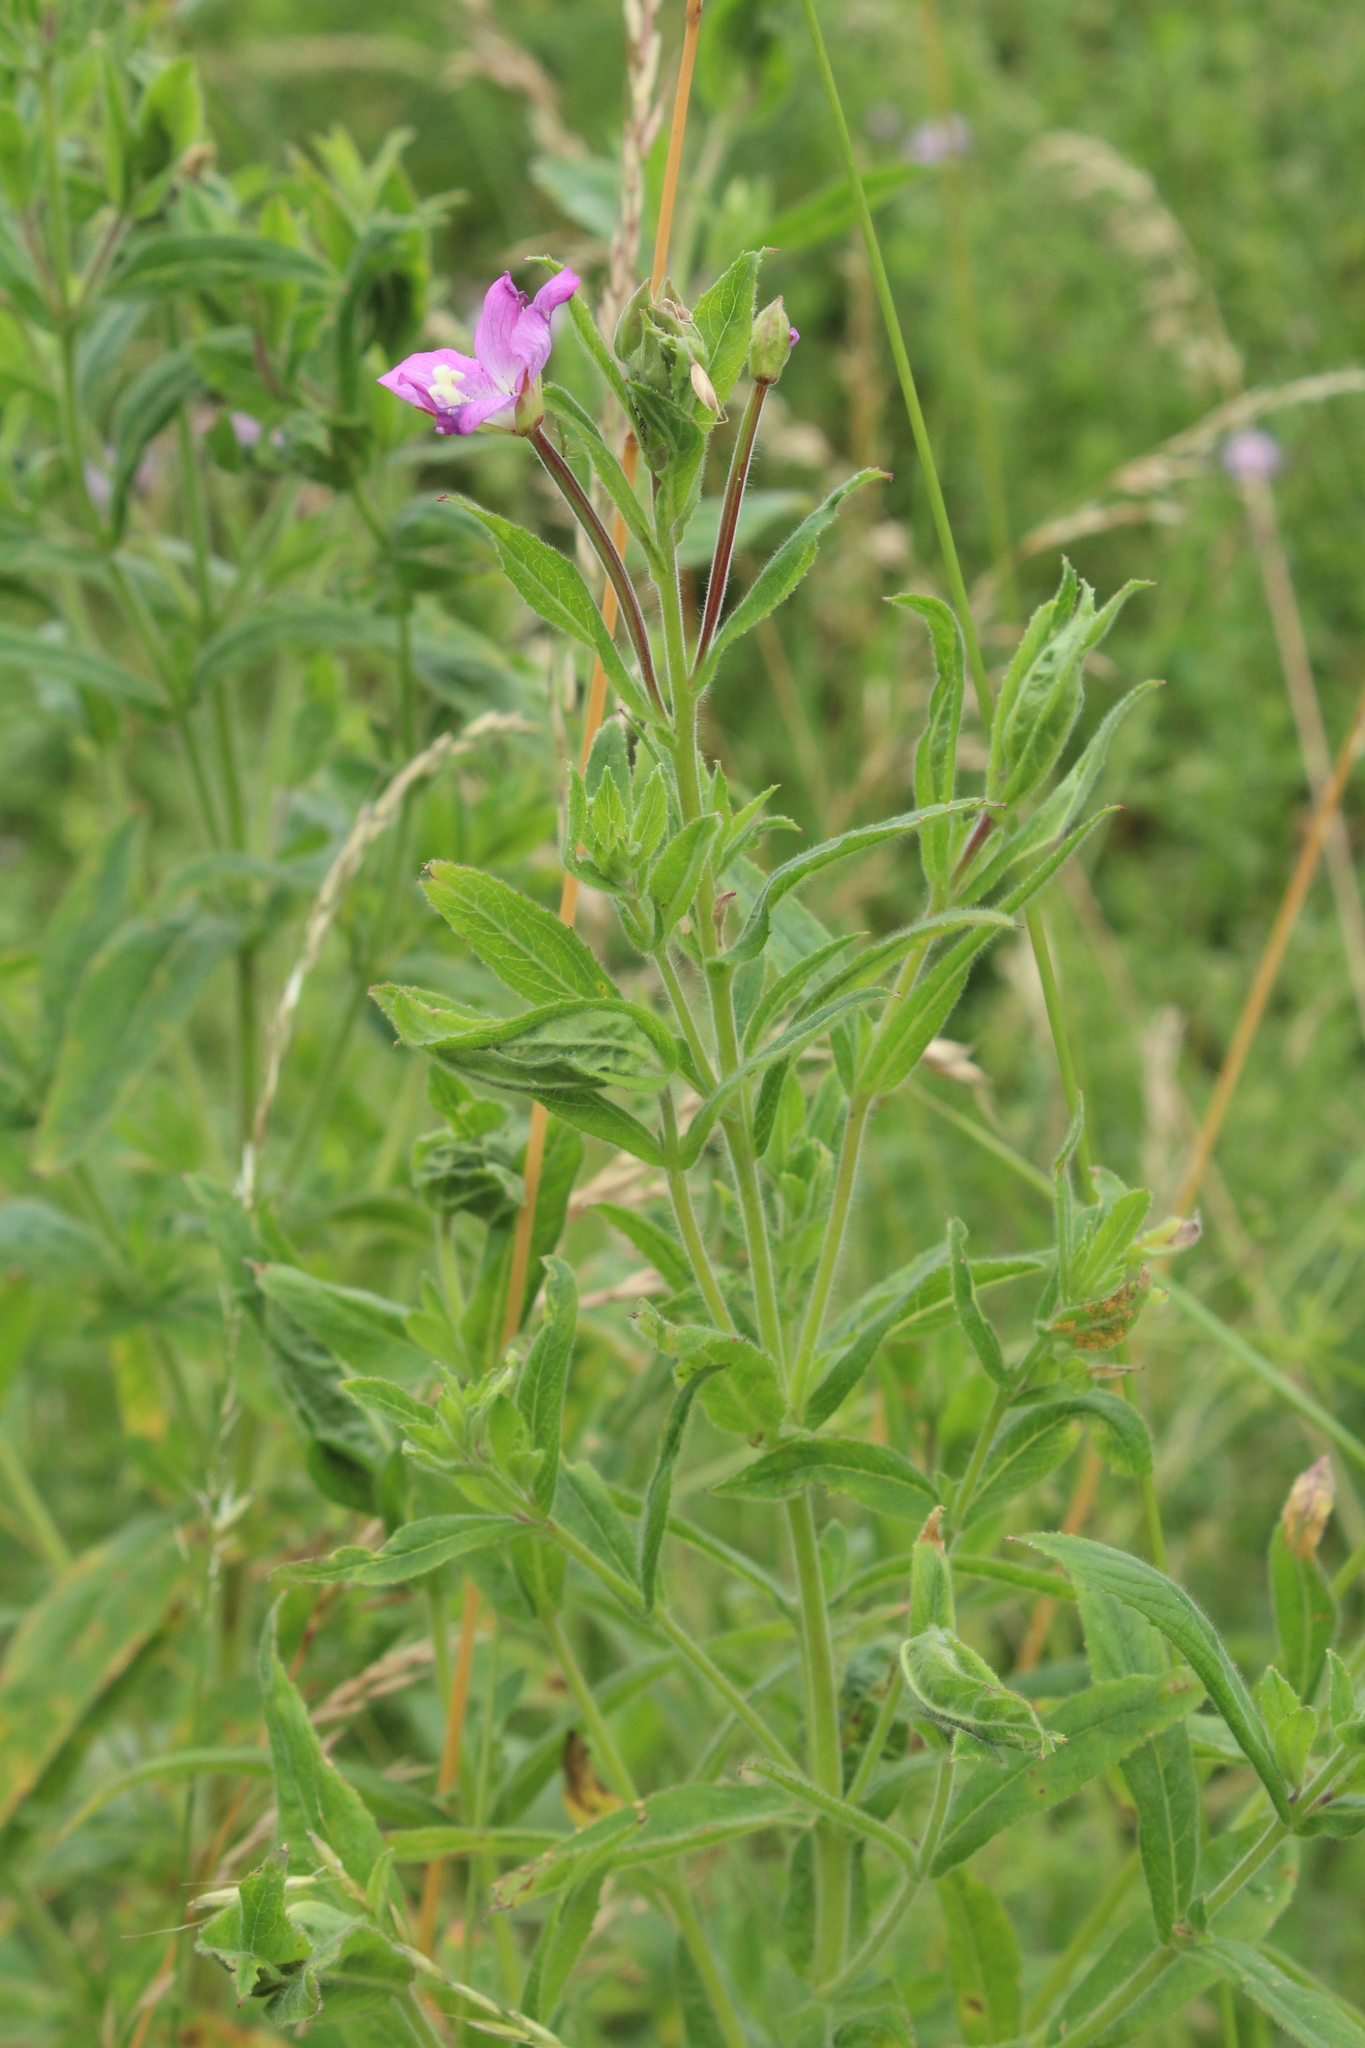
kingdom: Plantae
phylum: Tracheophyta
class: Magnoliopsida
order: Myrtales
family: Onagraceae
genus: Epilobium
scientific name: Epilobium hirsutum
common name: Great willowherb
